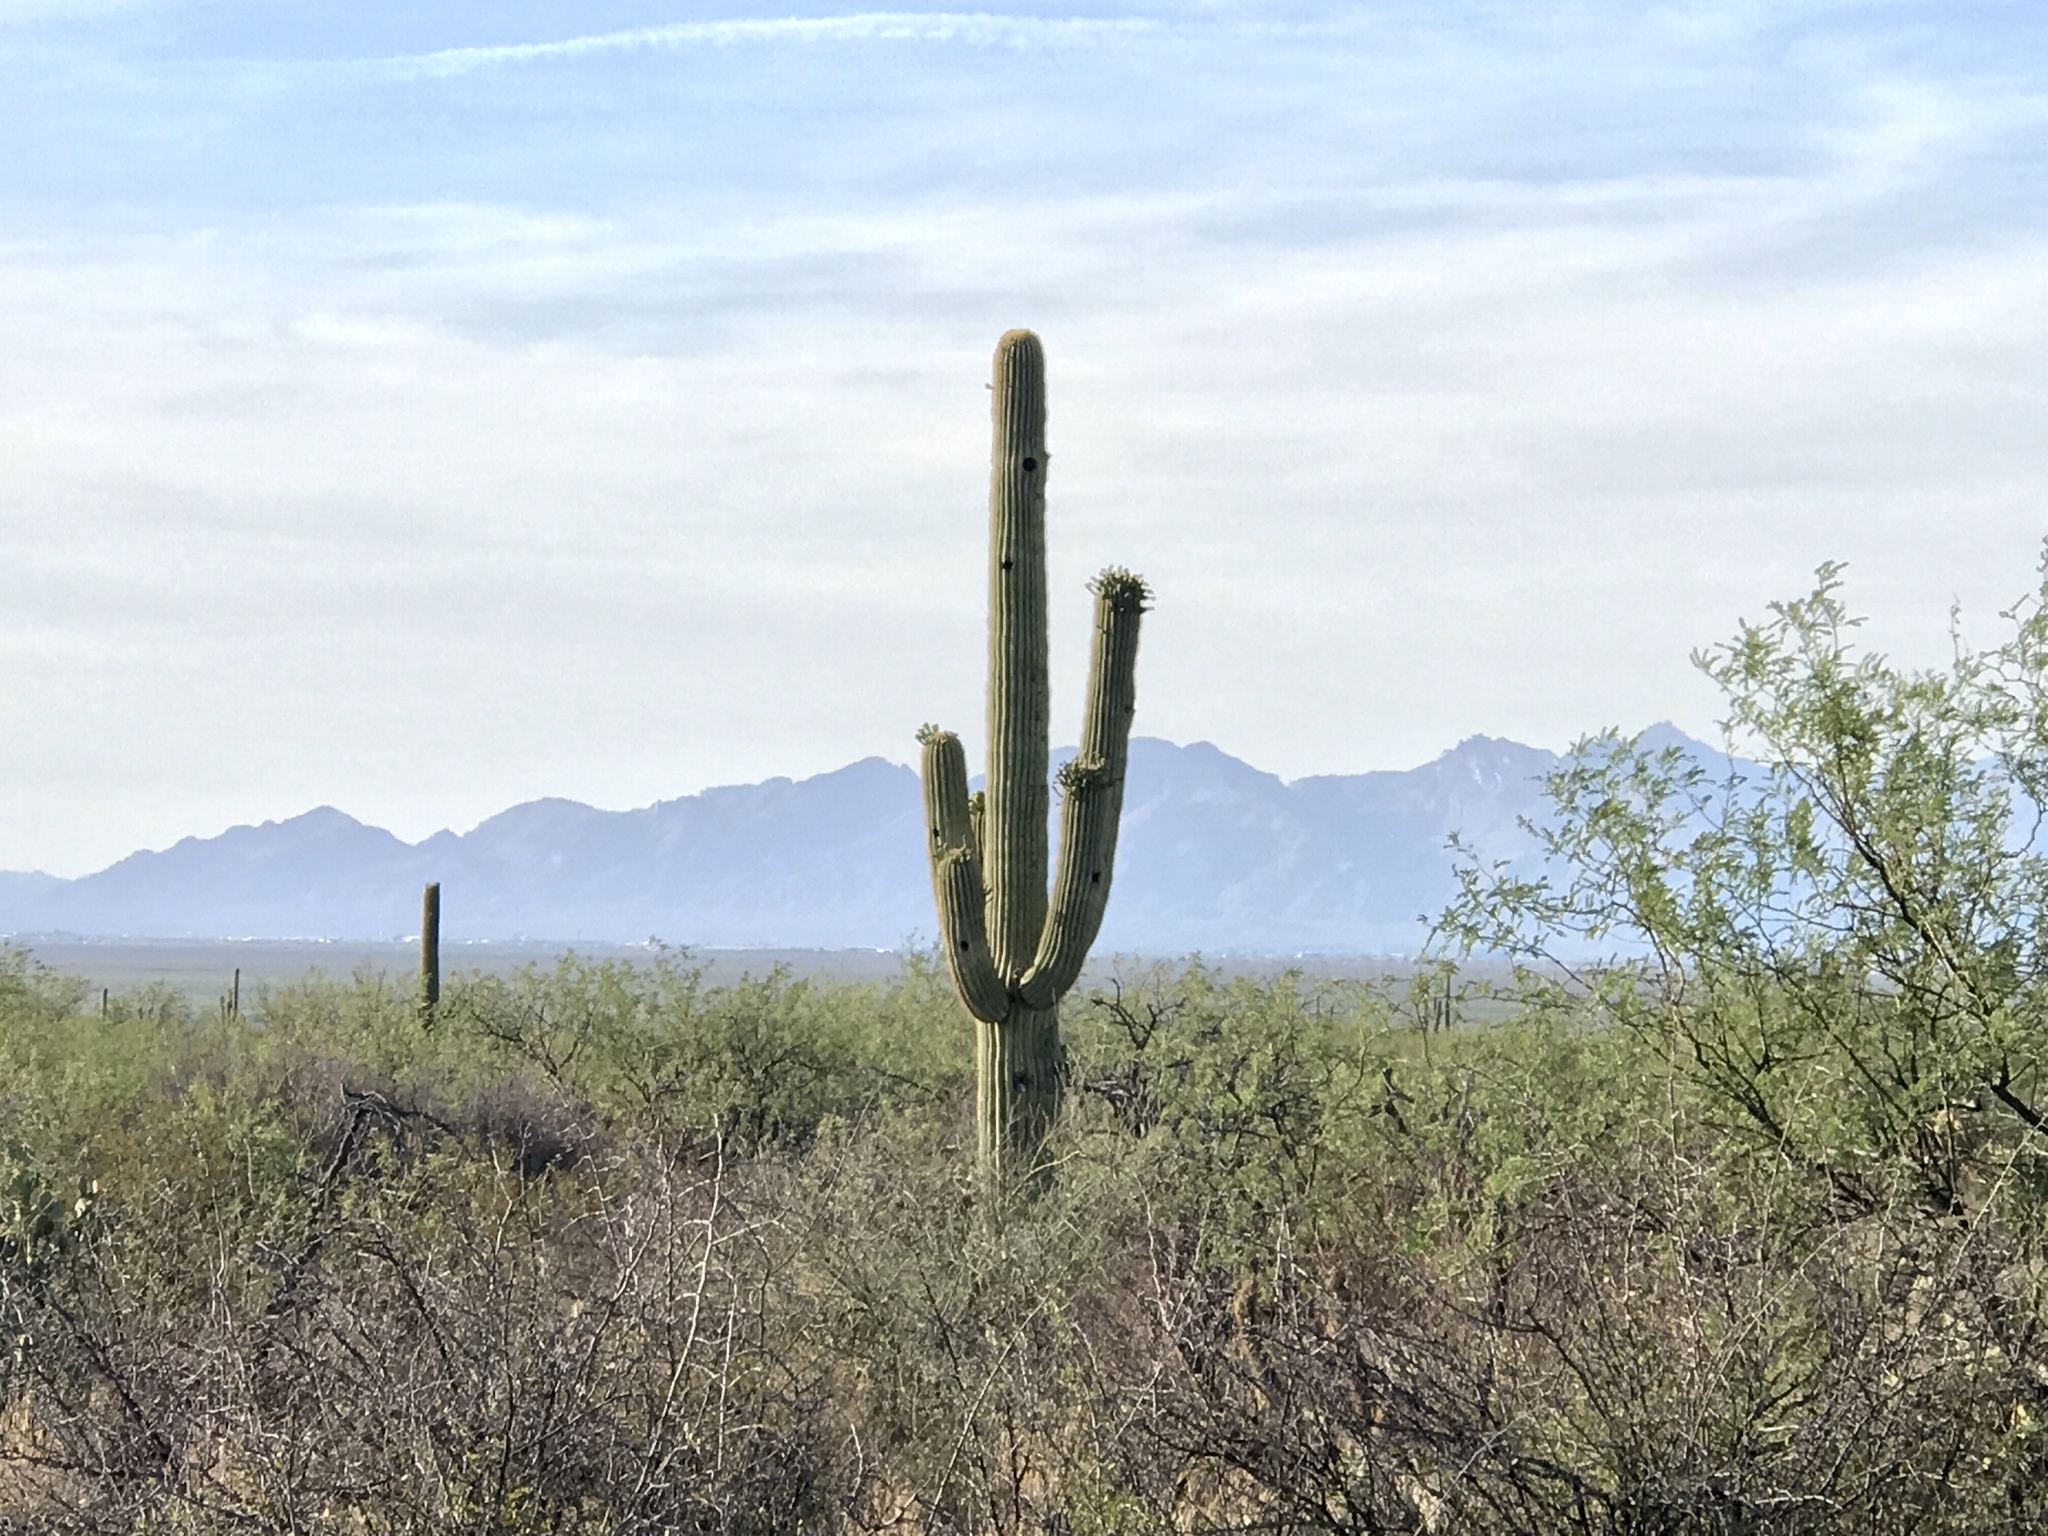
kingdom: Plantae
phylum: Tracheophyta
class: Magnoliopsida
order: Caryophyllales
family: Cactaceae
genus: Carnegiea
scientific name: Carnegiea gigantea
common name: Saguaro
